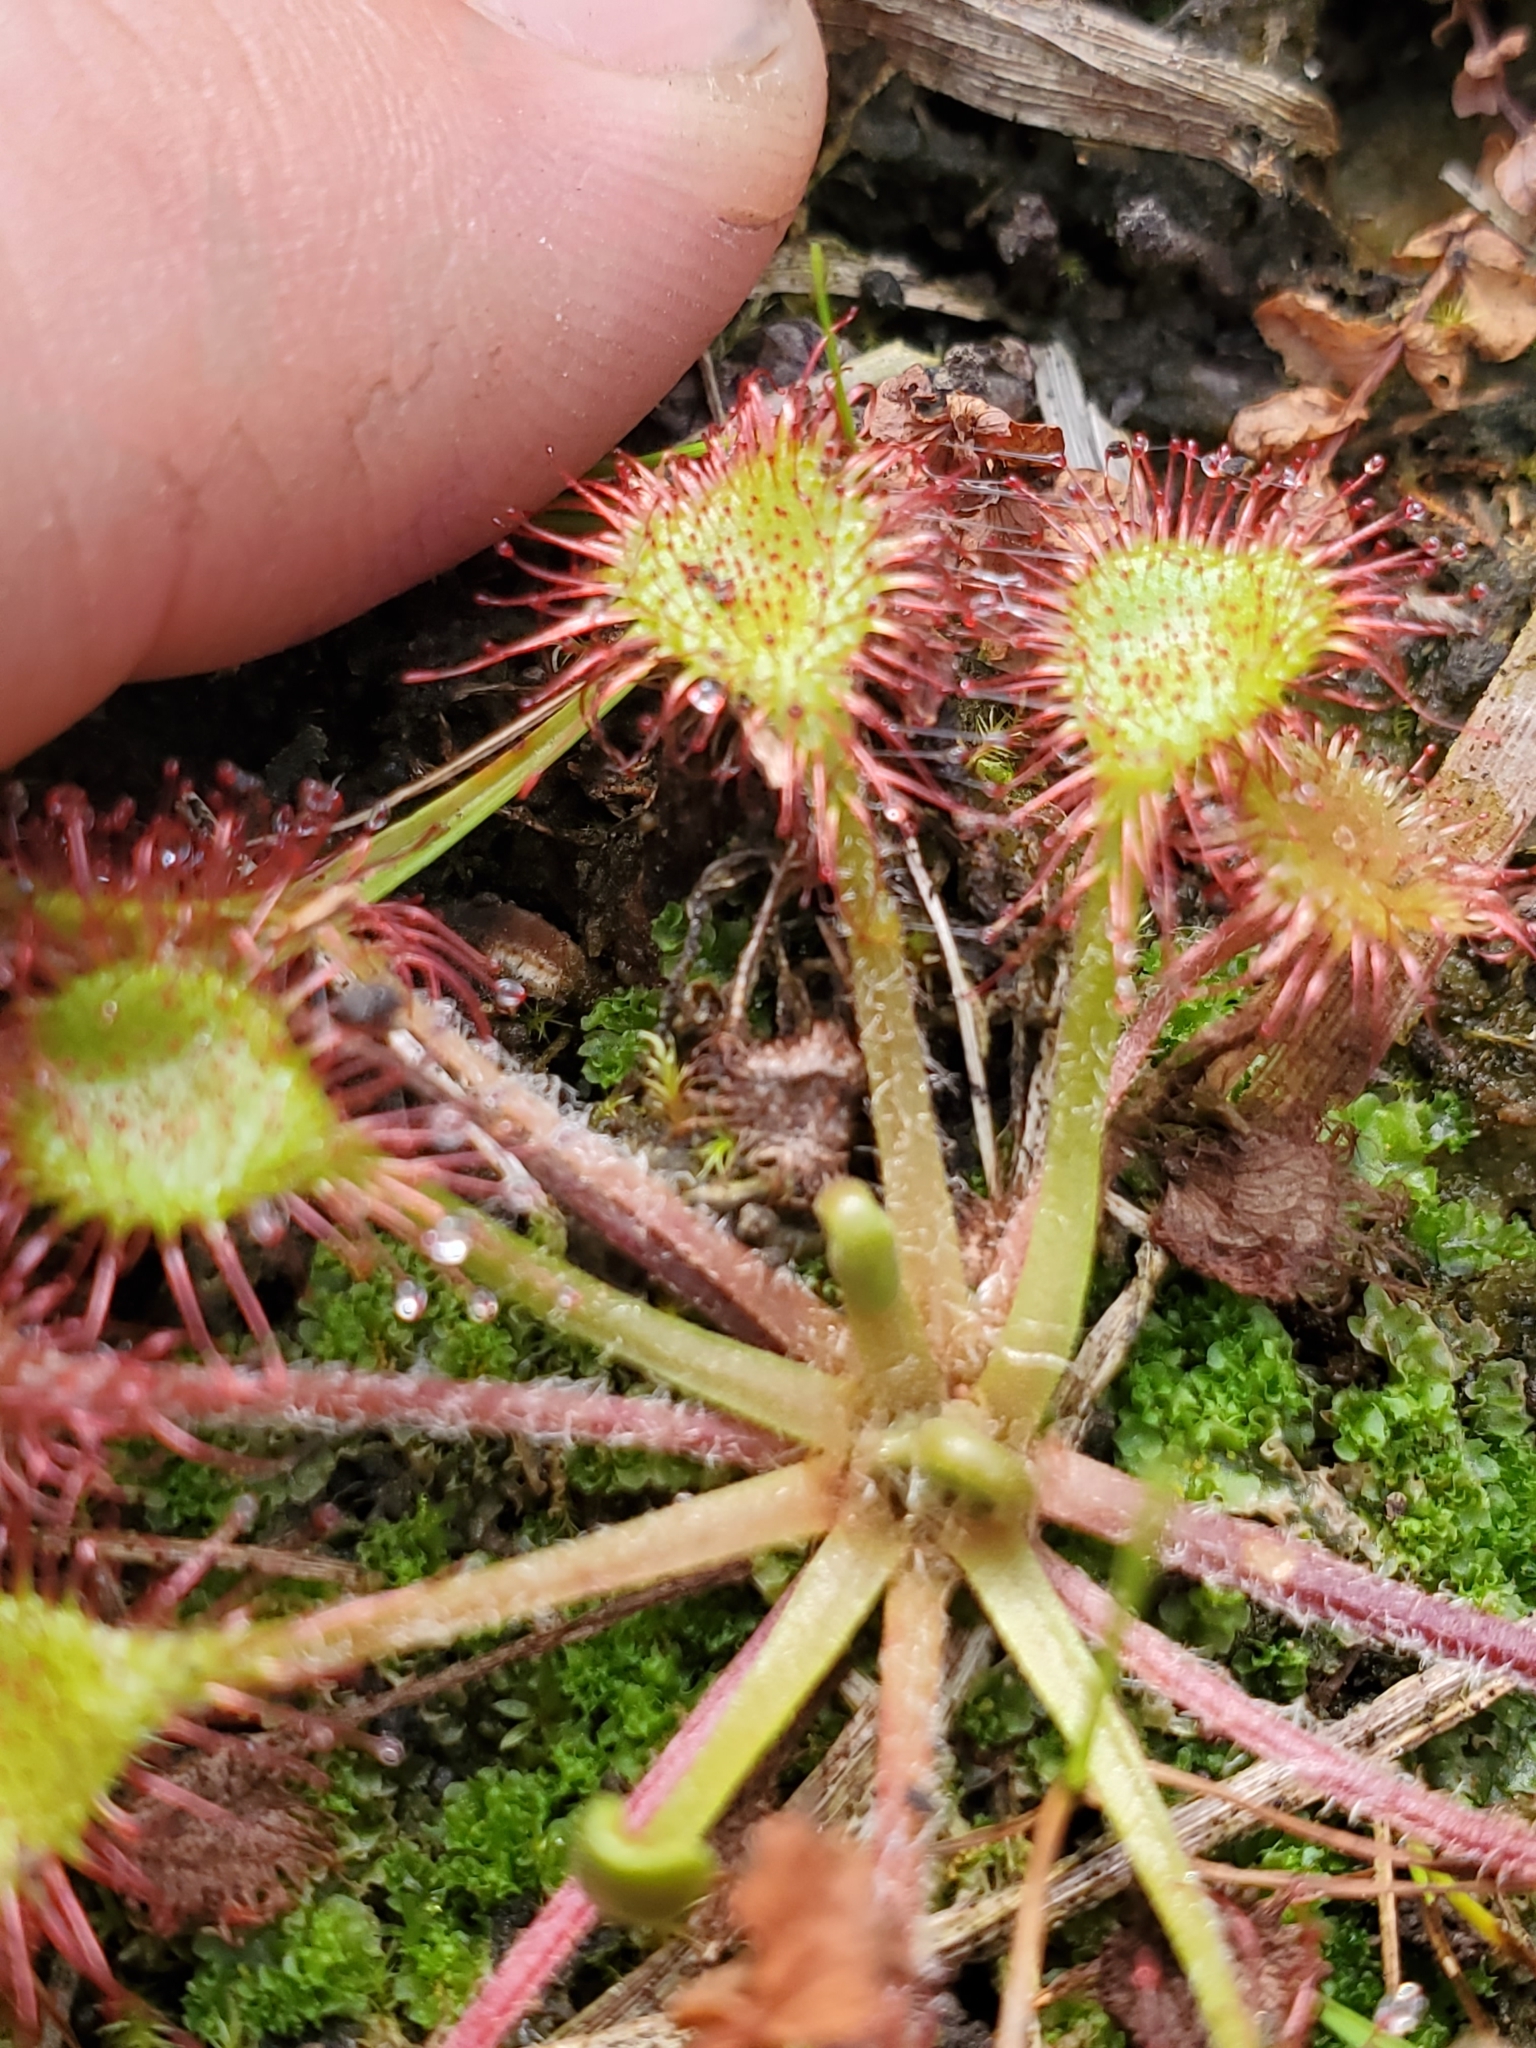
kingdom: Plantae
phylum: Tracheophyta
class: Magnoliopsida
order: Caryophyllales
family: Droseraceae
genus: Drosera
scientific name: Drosera rotundifolia
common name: Round-leaved sundew
